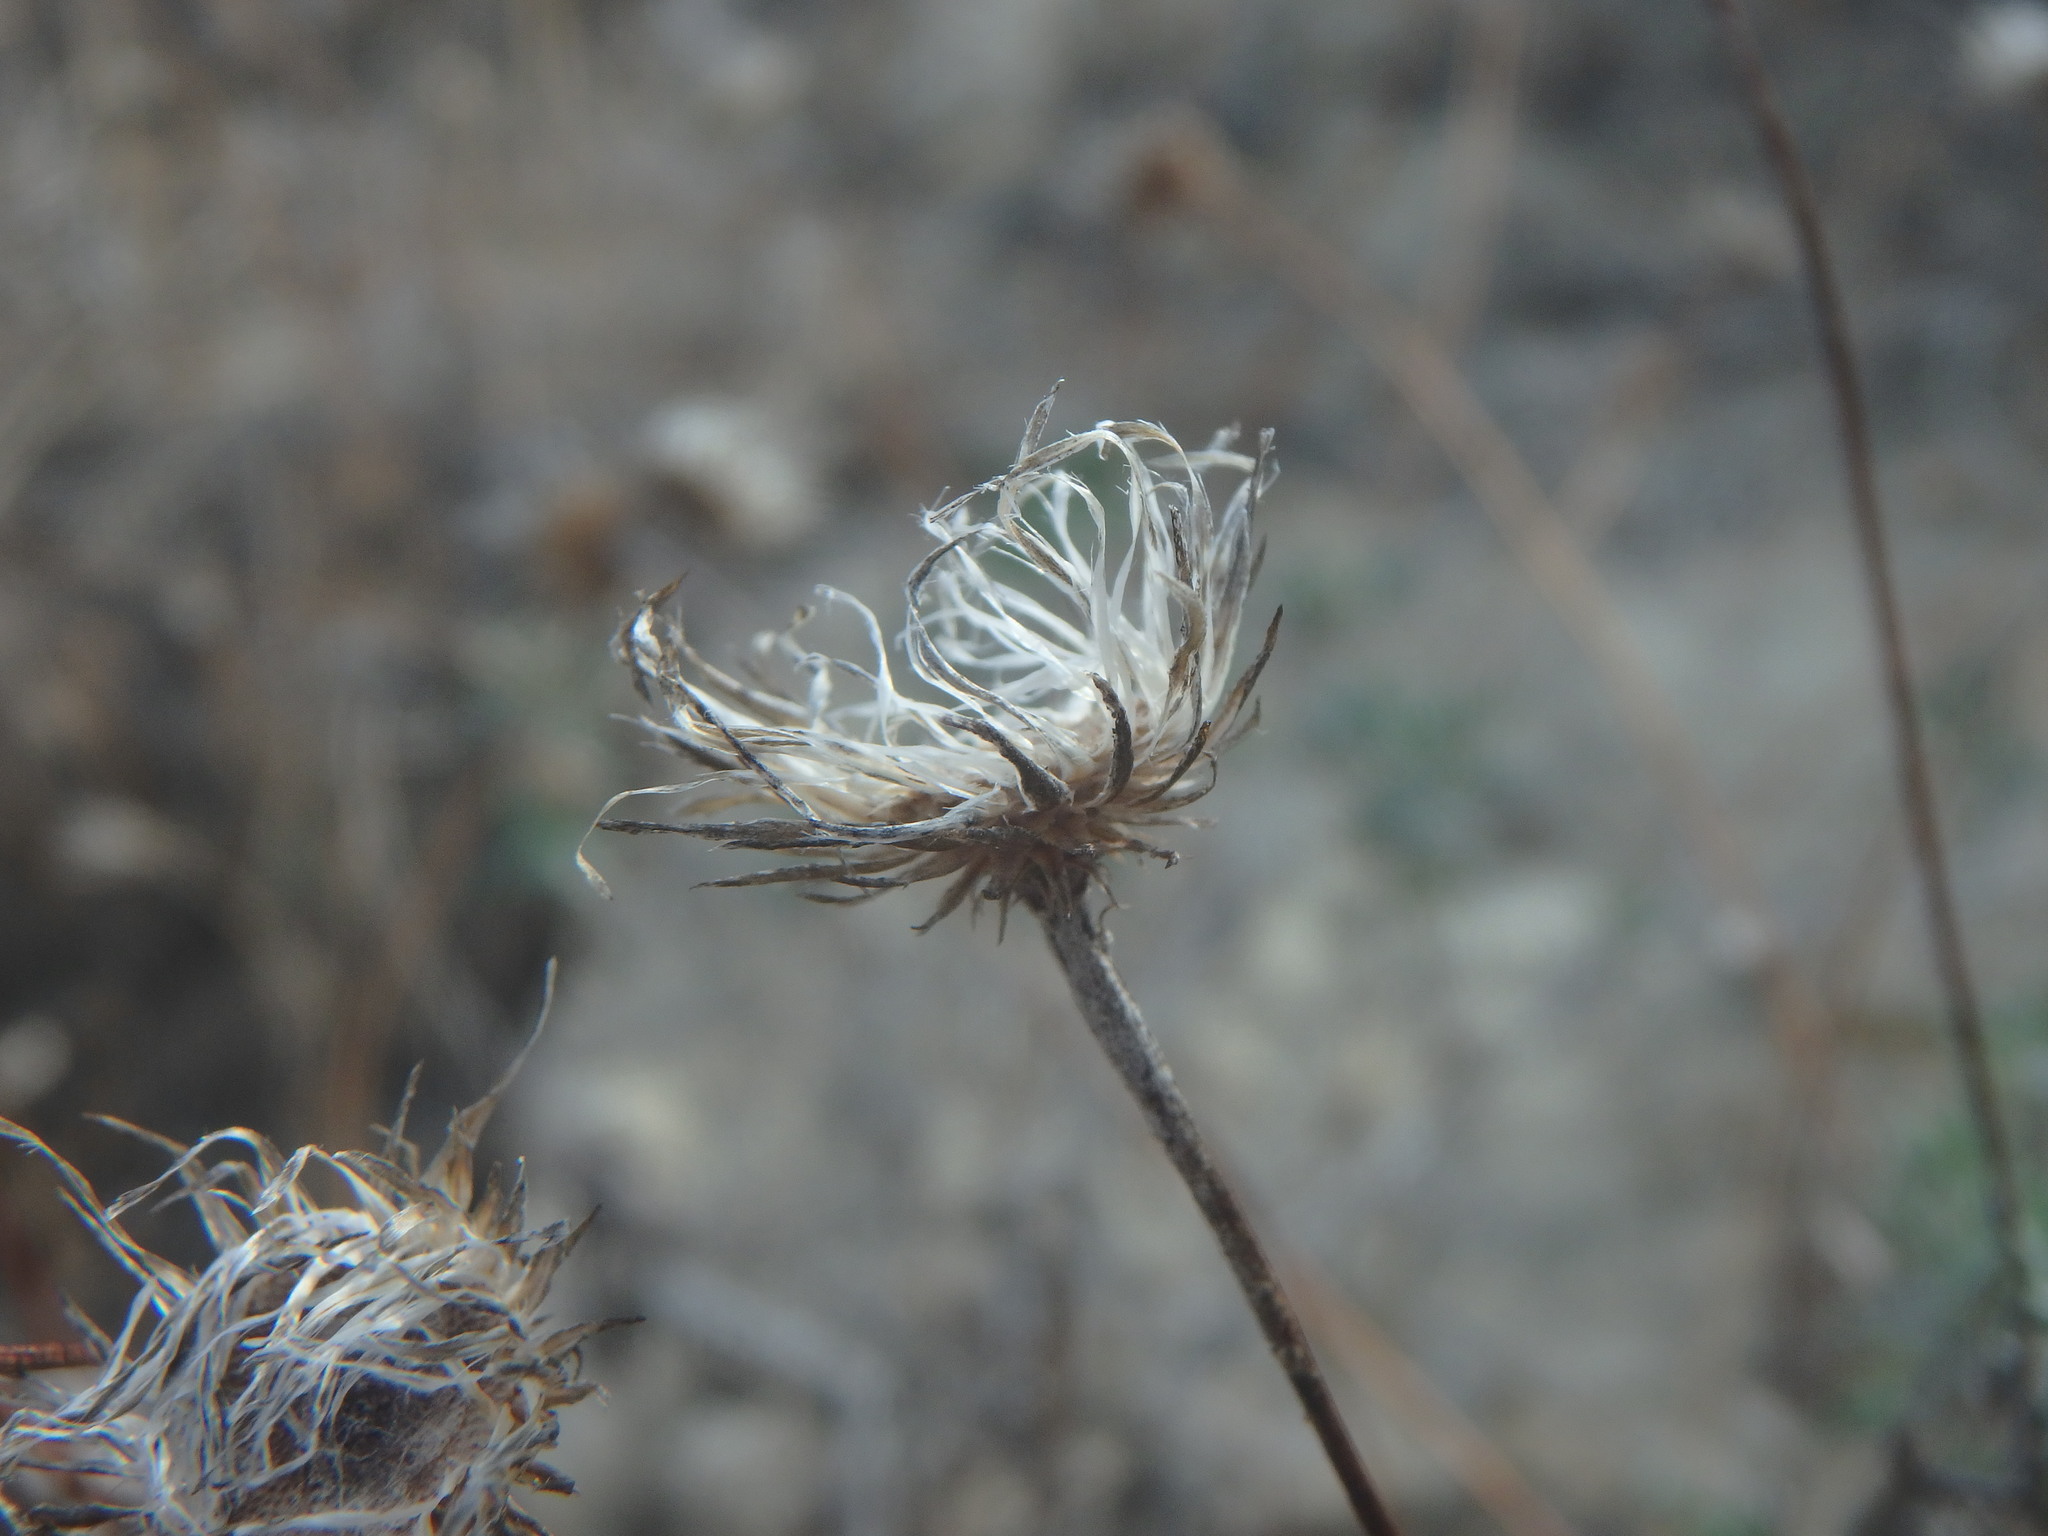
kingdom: Plantae
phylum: Tracheophyta
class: Magnoliopsida
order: Asterales
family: Asteraceae
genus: Phagnalon
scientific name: Phagnalon
